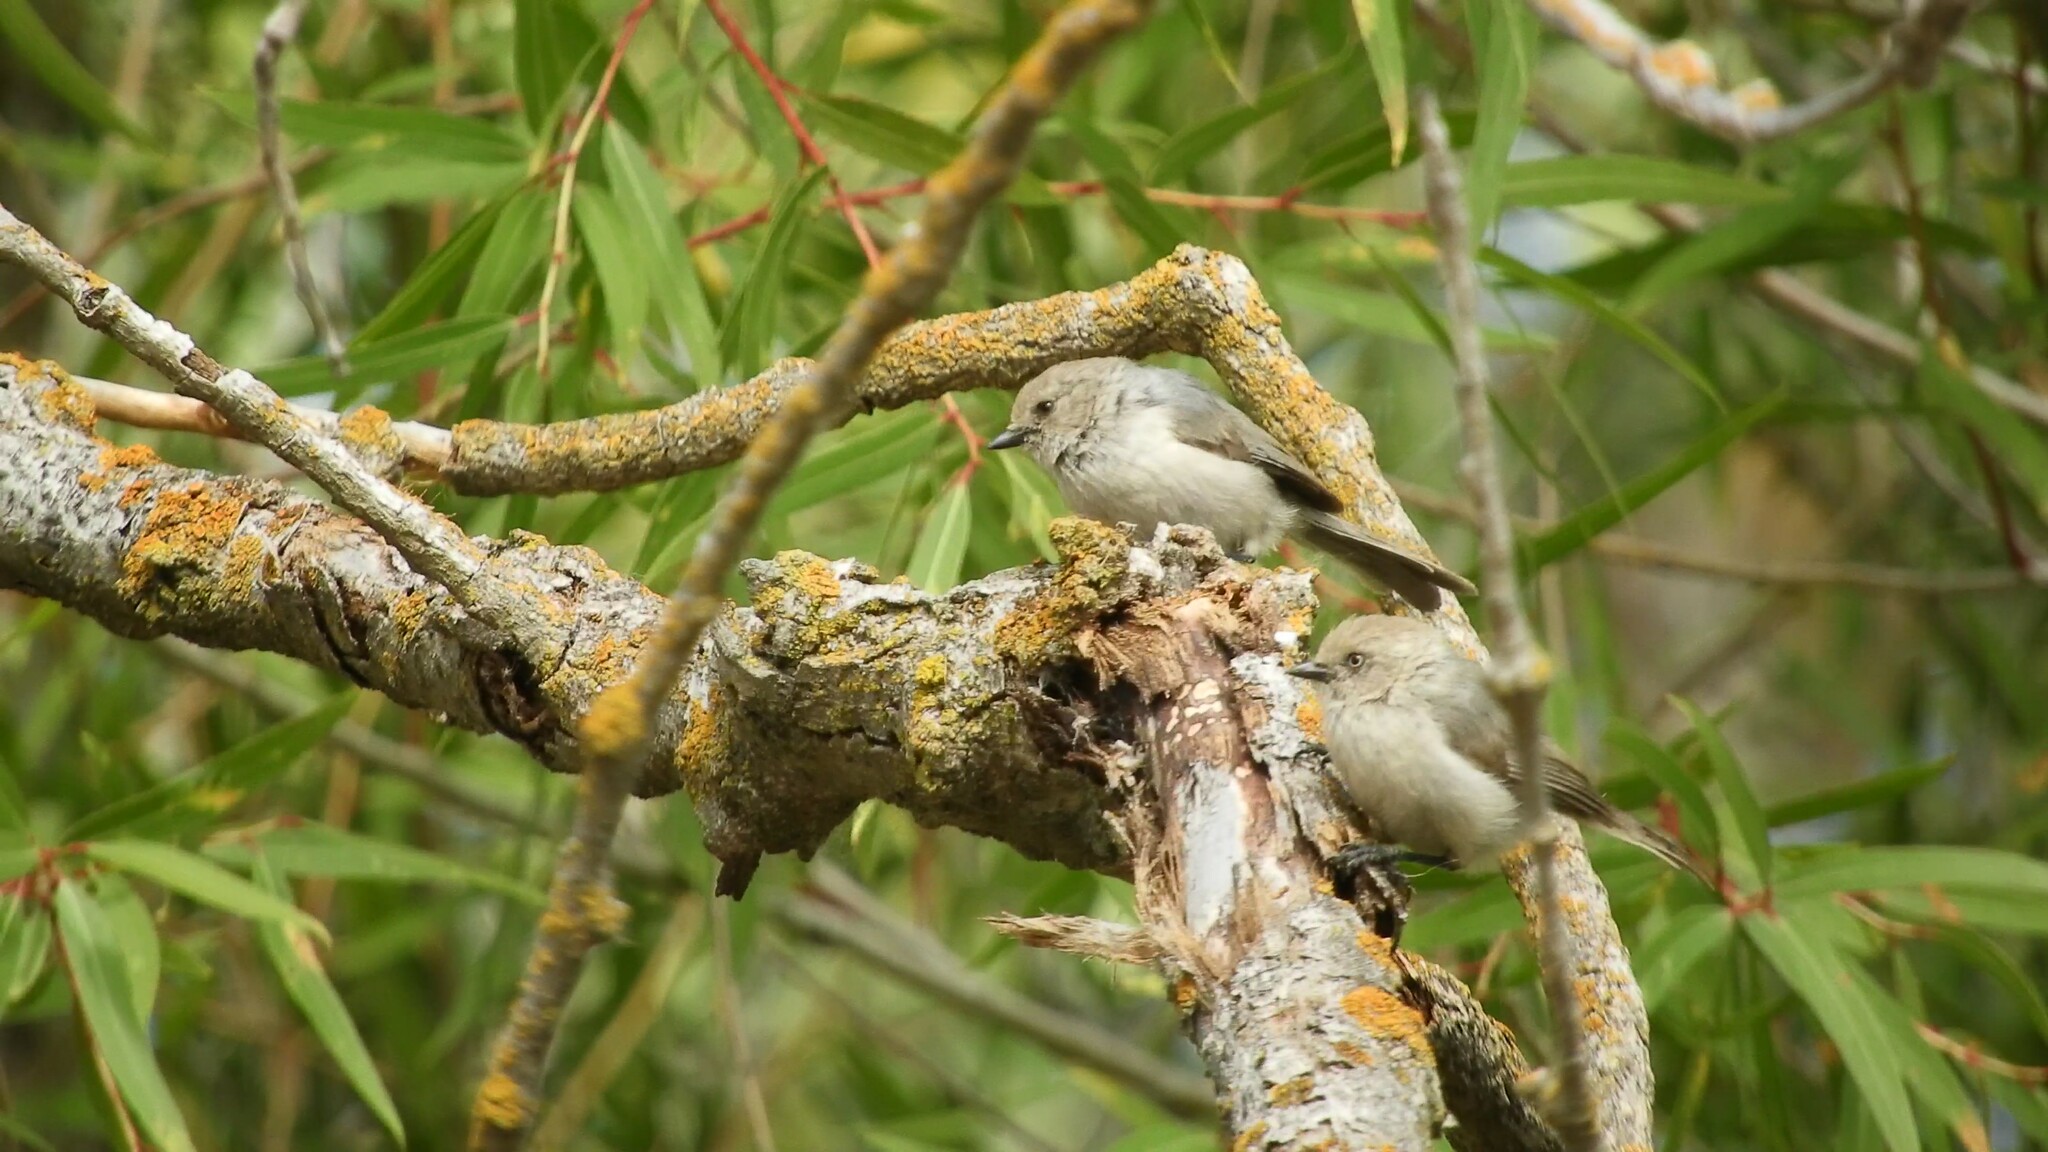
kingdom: Animalia
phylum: Chordata
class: Aves
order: Passeriformes
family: Aegithalidae
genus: Psaltriparus
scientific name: Psaltriparus minimus
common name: American bushtit
